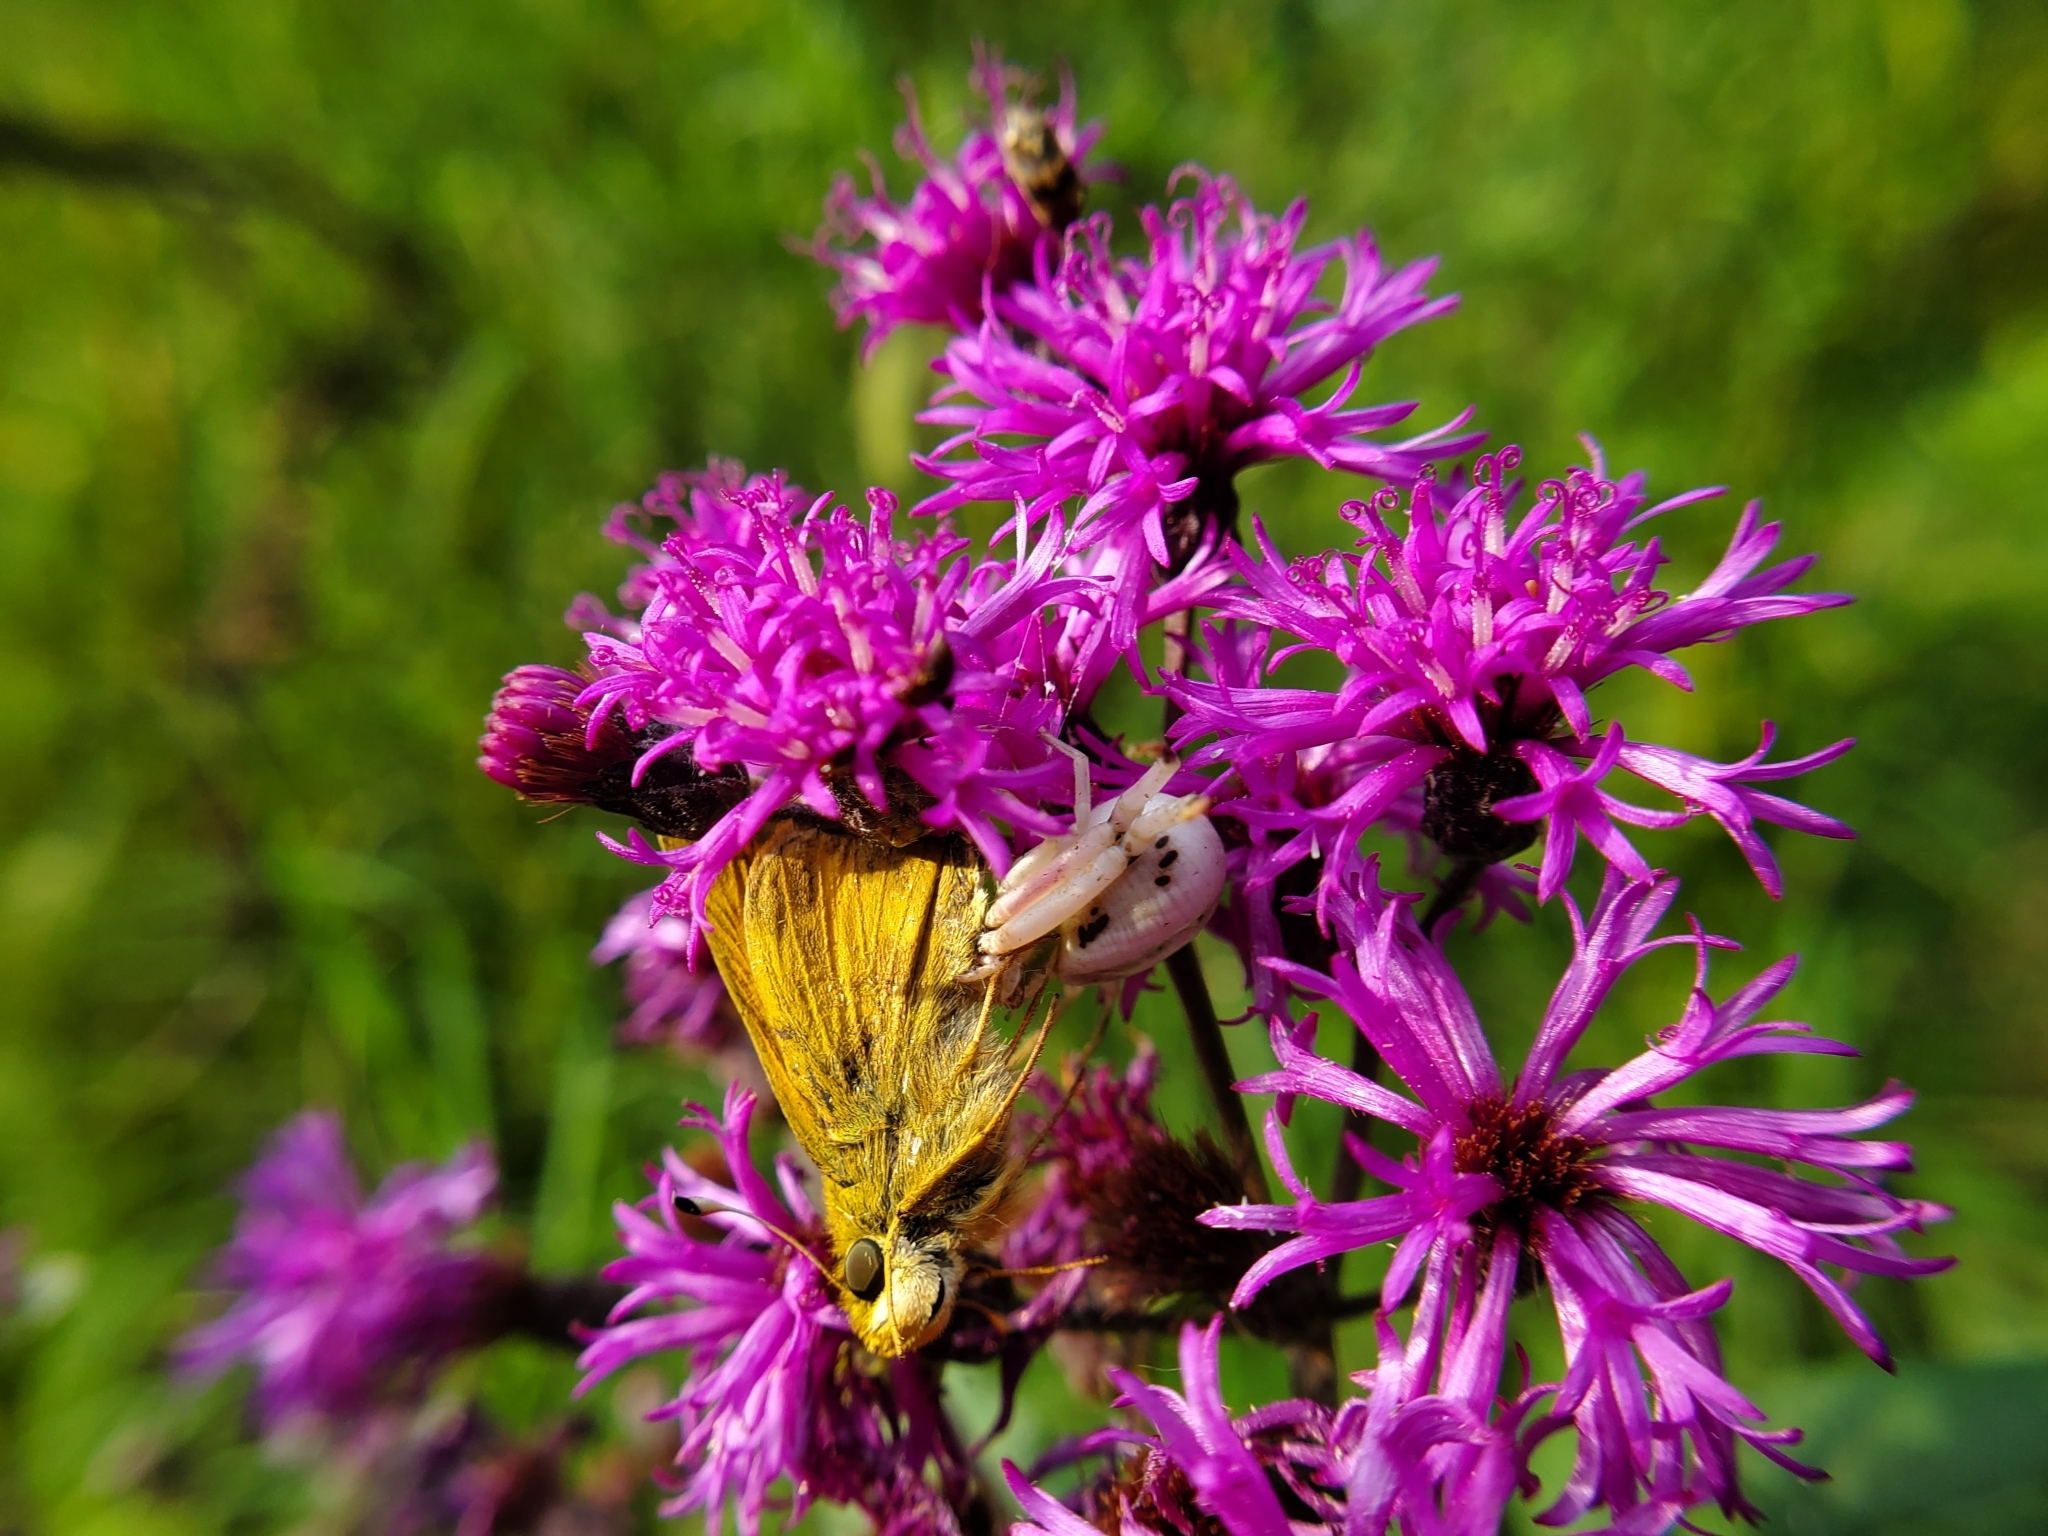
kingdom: Animalia
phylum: Arthropoda
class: Arachnida
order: Araneae
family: Thomisidae
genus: Misumenoides
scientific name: Misumenoides formosipes
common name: White-banded crab spider
